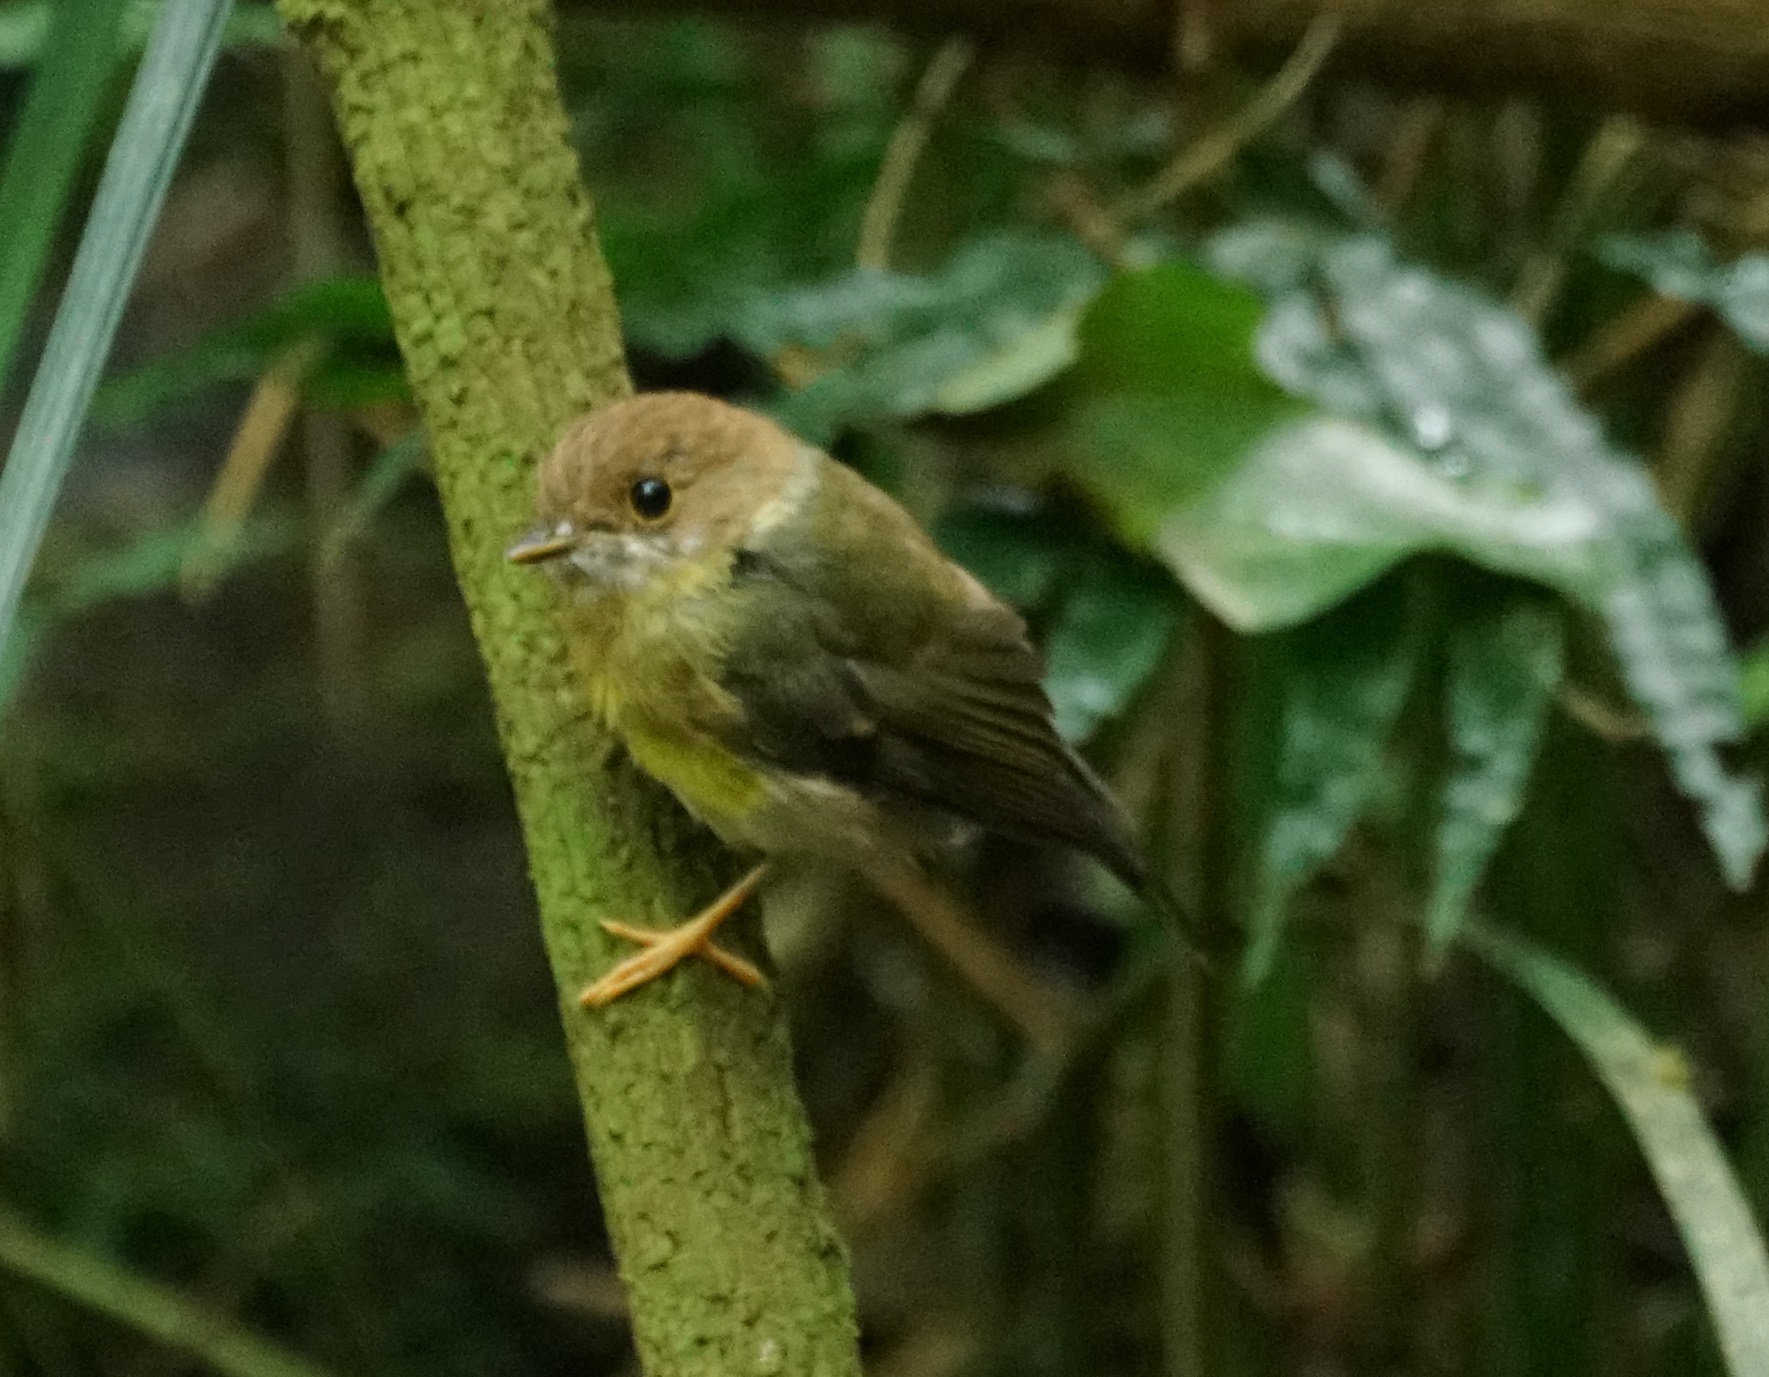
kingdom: Animalia
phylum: Chordata
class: Aves
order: Passeriformes
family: Petroicidae
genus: Eopsaltria
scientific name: Eopsaltria
